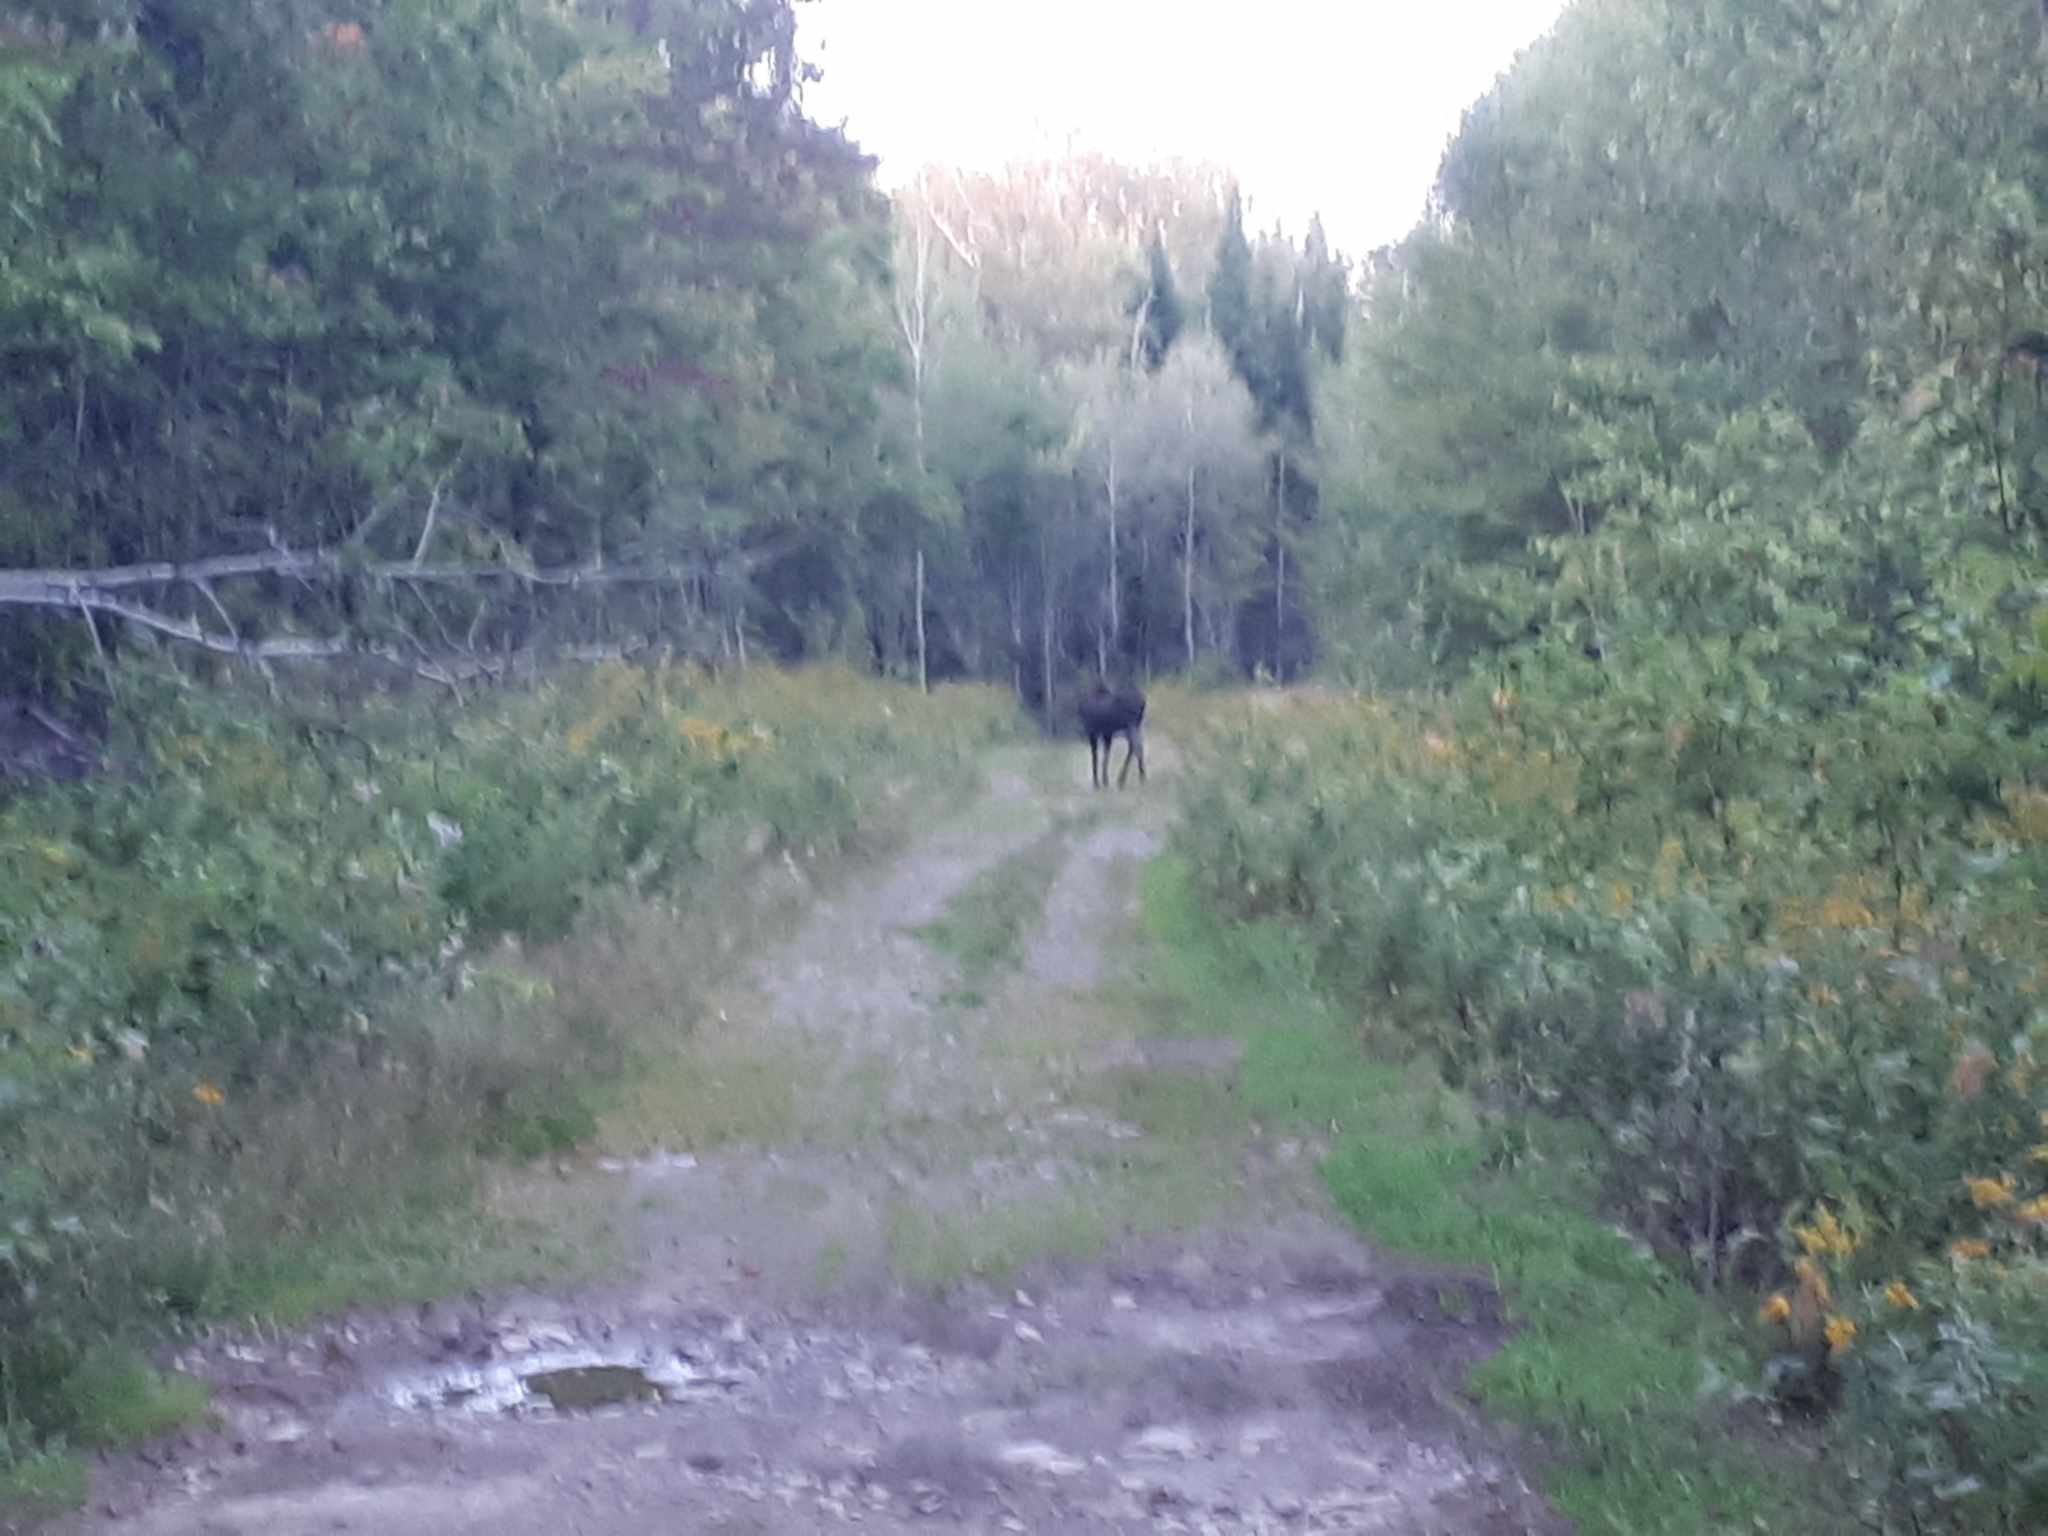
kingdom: Animalia
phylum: Chordata
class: Mammalia
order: Artiodactyla
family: Cervidae
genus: Alces
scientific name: Alces alces
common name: Moose
